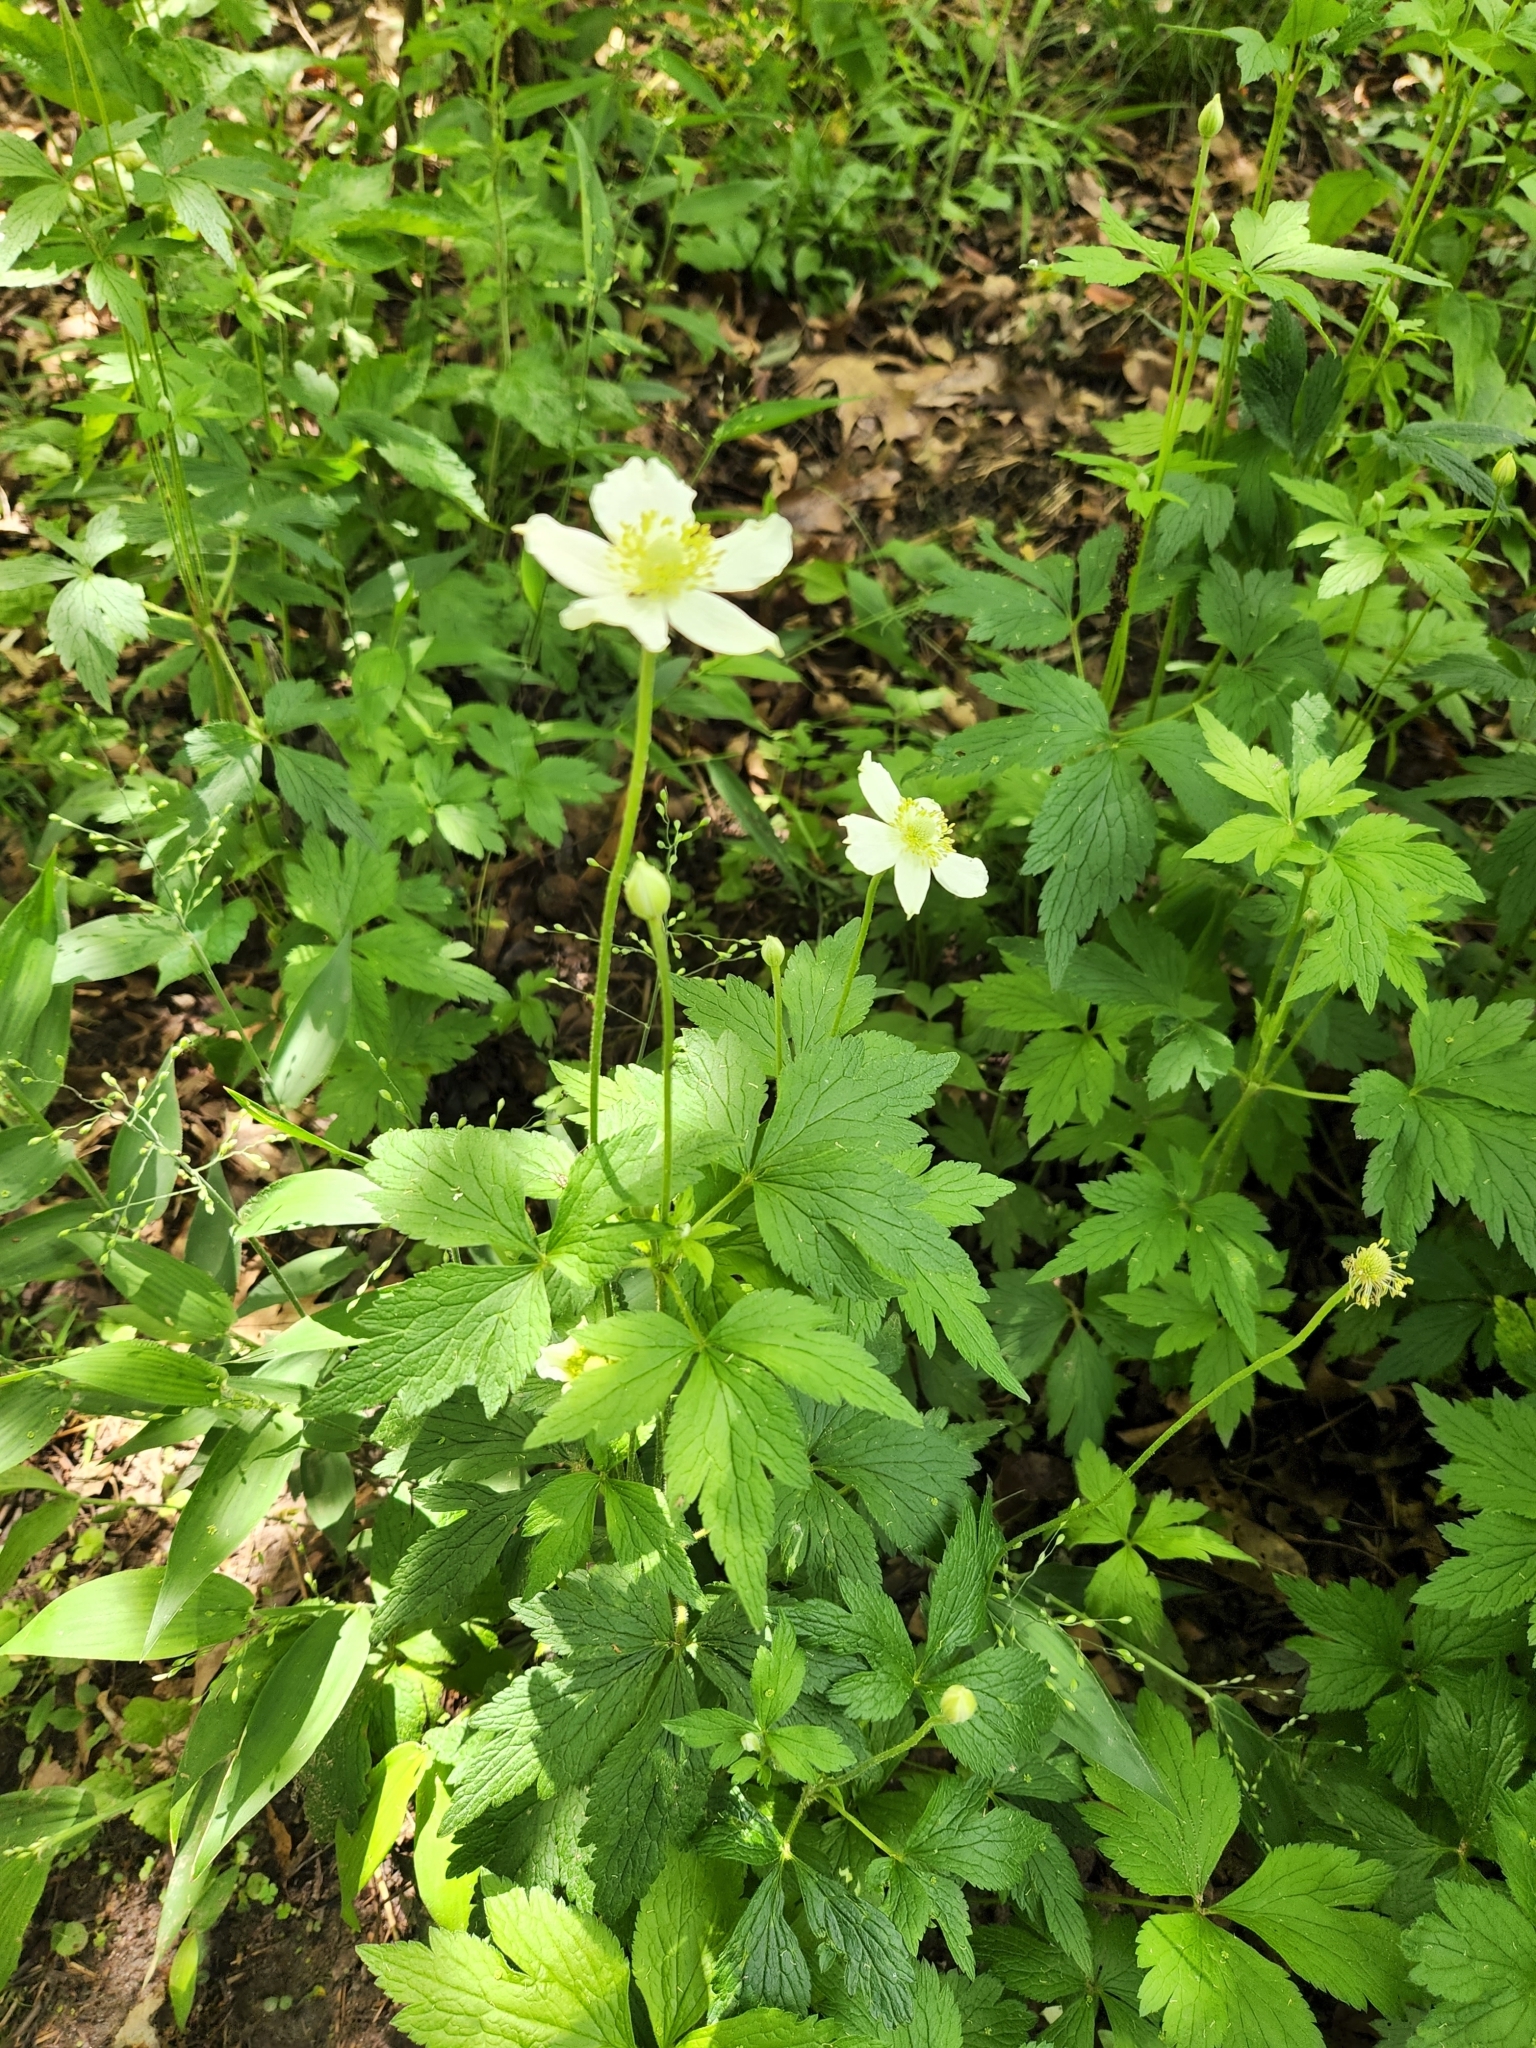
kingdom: Plantae
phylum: Tracheophyta
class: Magnoliopsida
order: Ranunculales
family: Ranunculaceae
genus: Anemone
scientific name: Anemone virginiana
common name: Tall anemone
